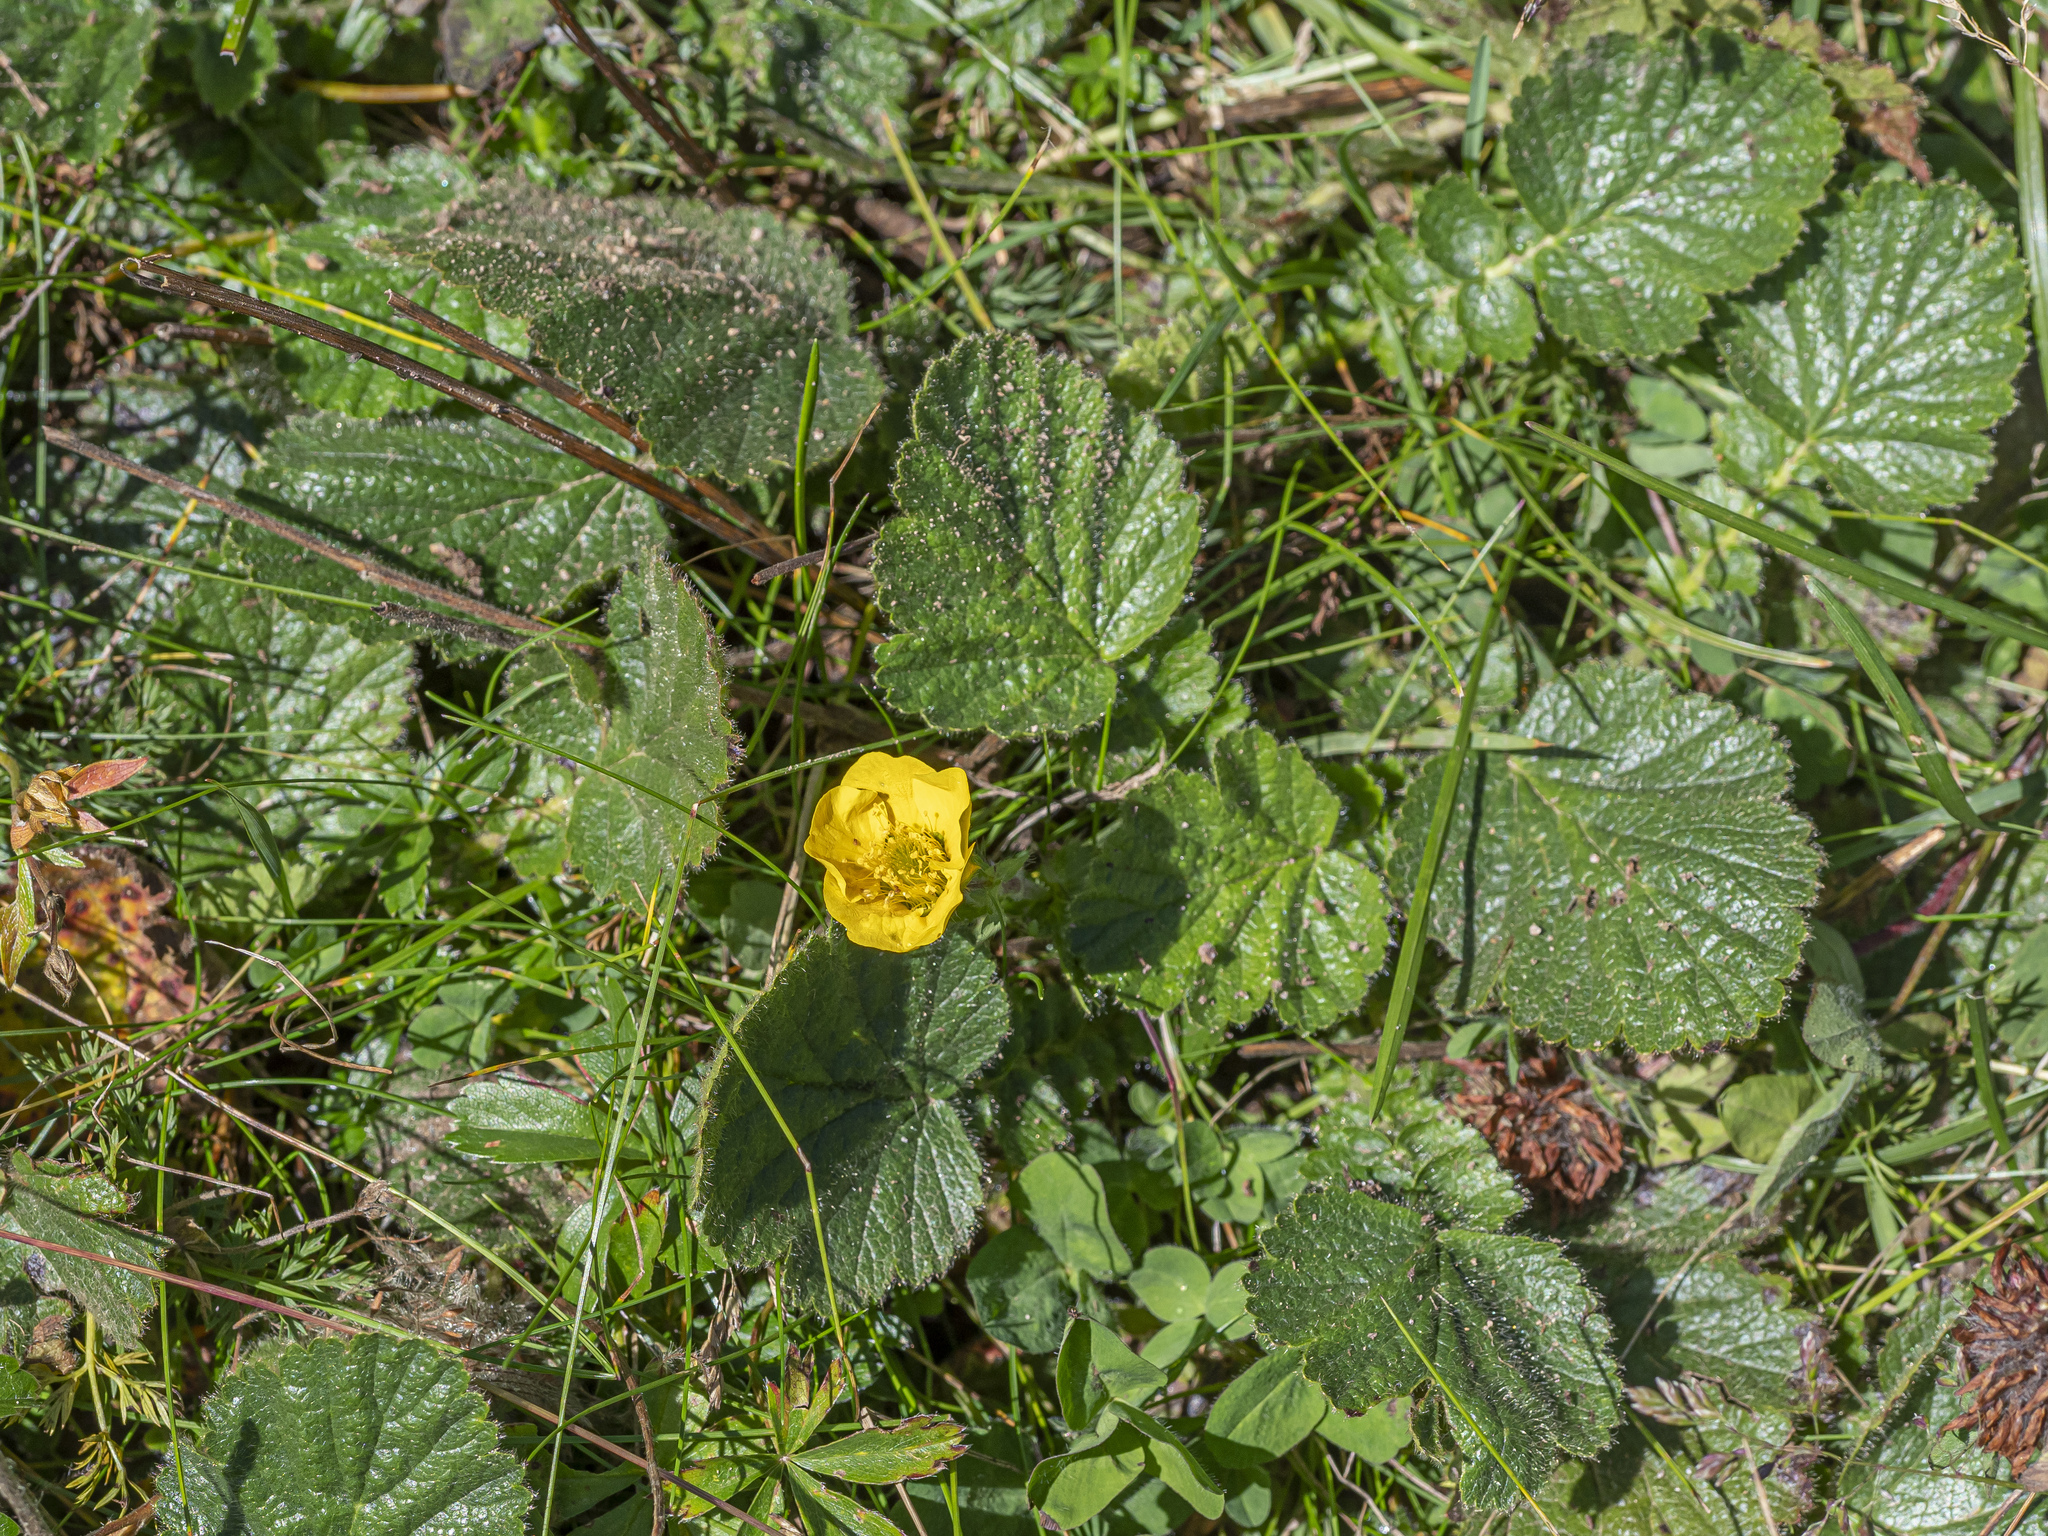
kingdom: Plantae
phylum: Tracheophyta
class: Magnoliopsida
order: Rosales
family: Rosaceae
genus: Geum
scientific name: Geum montanum
